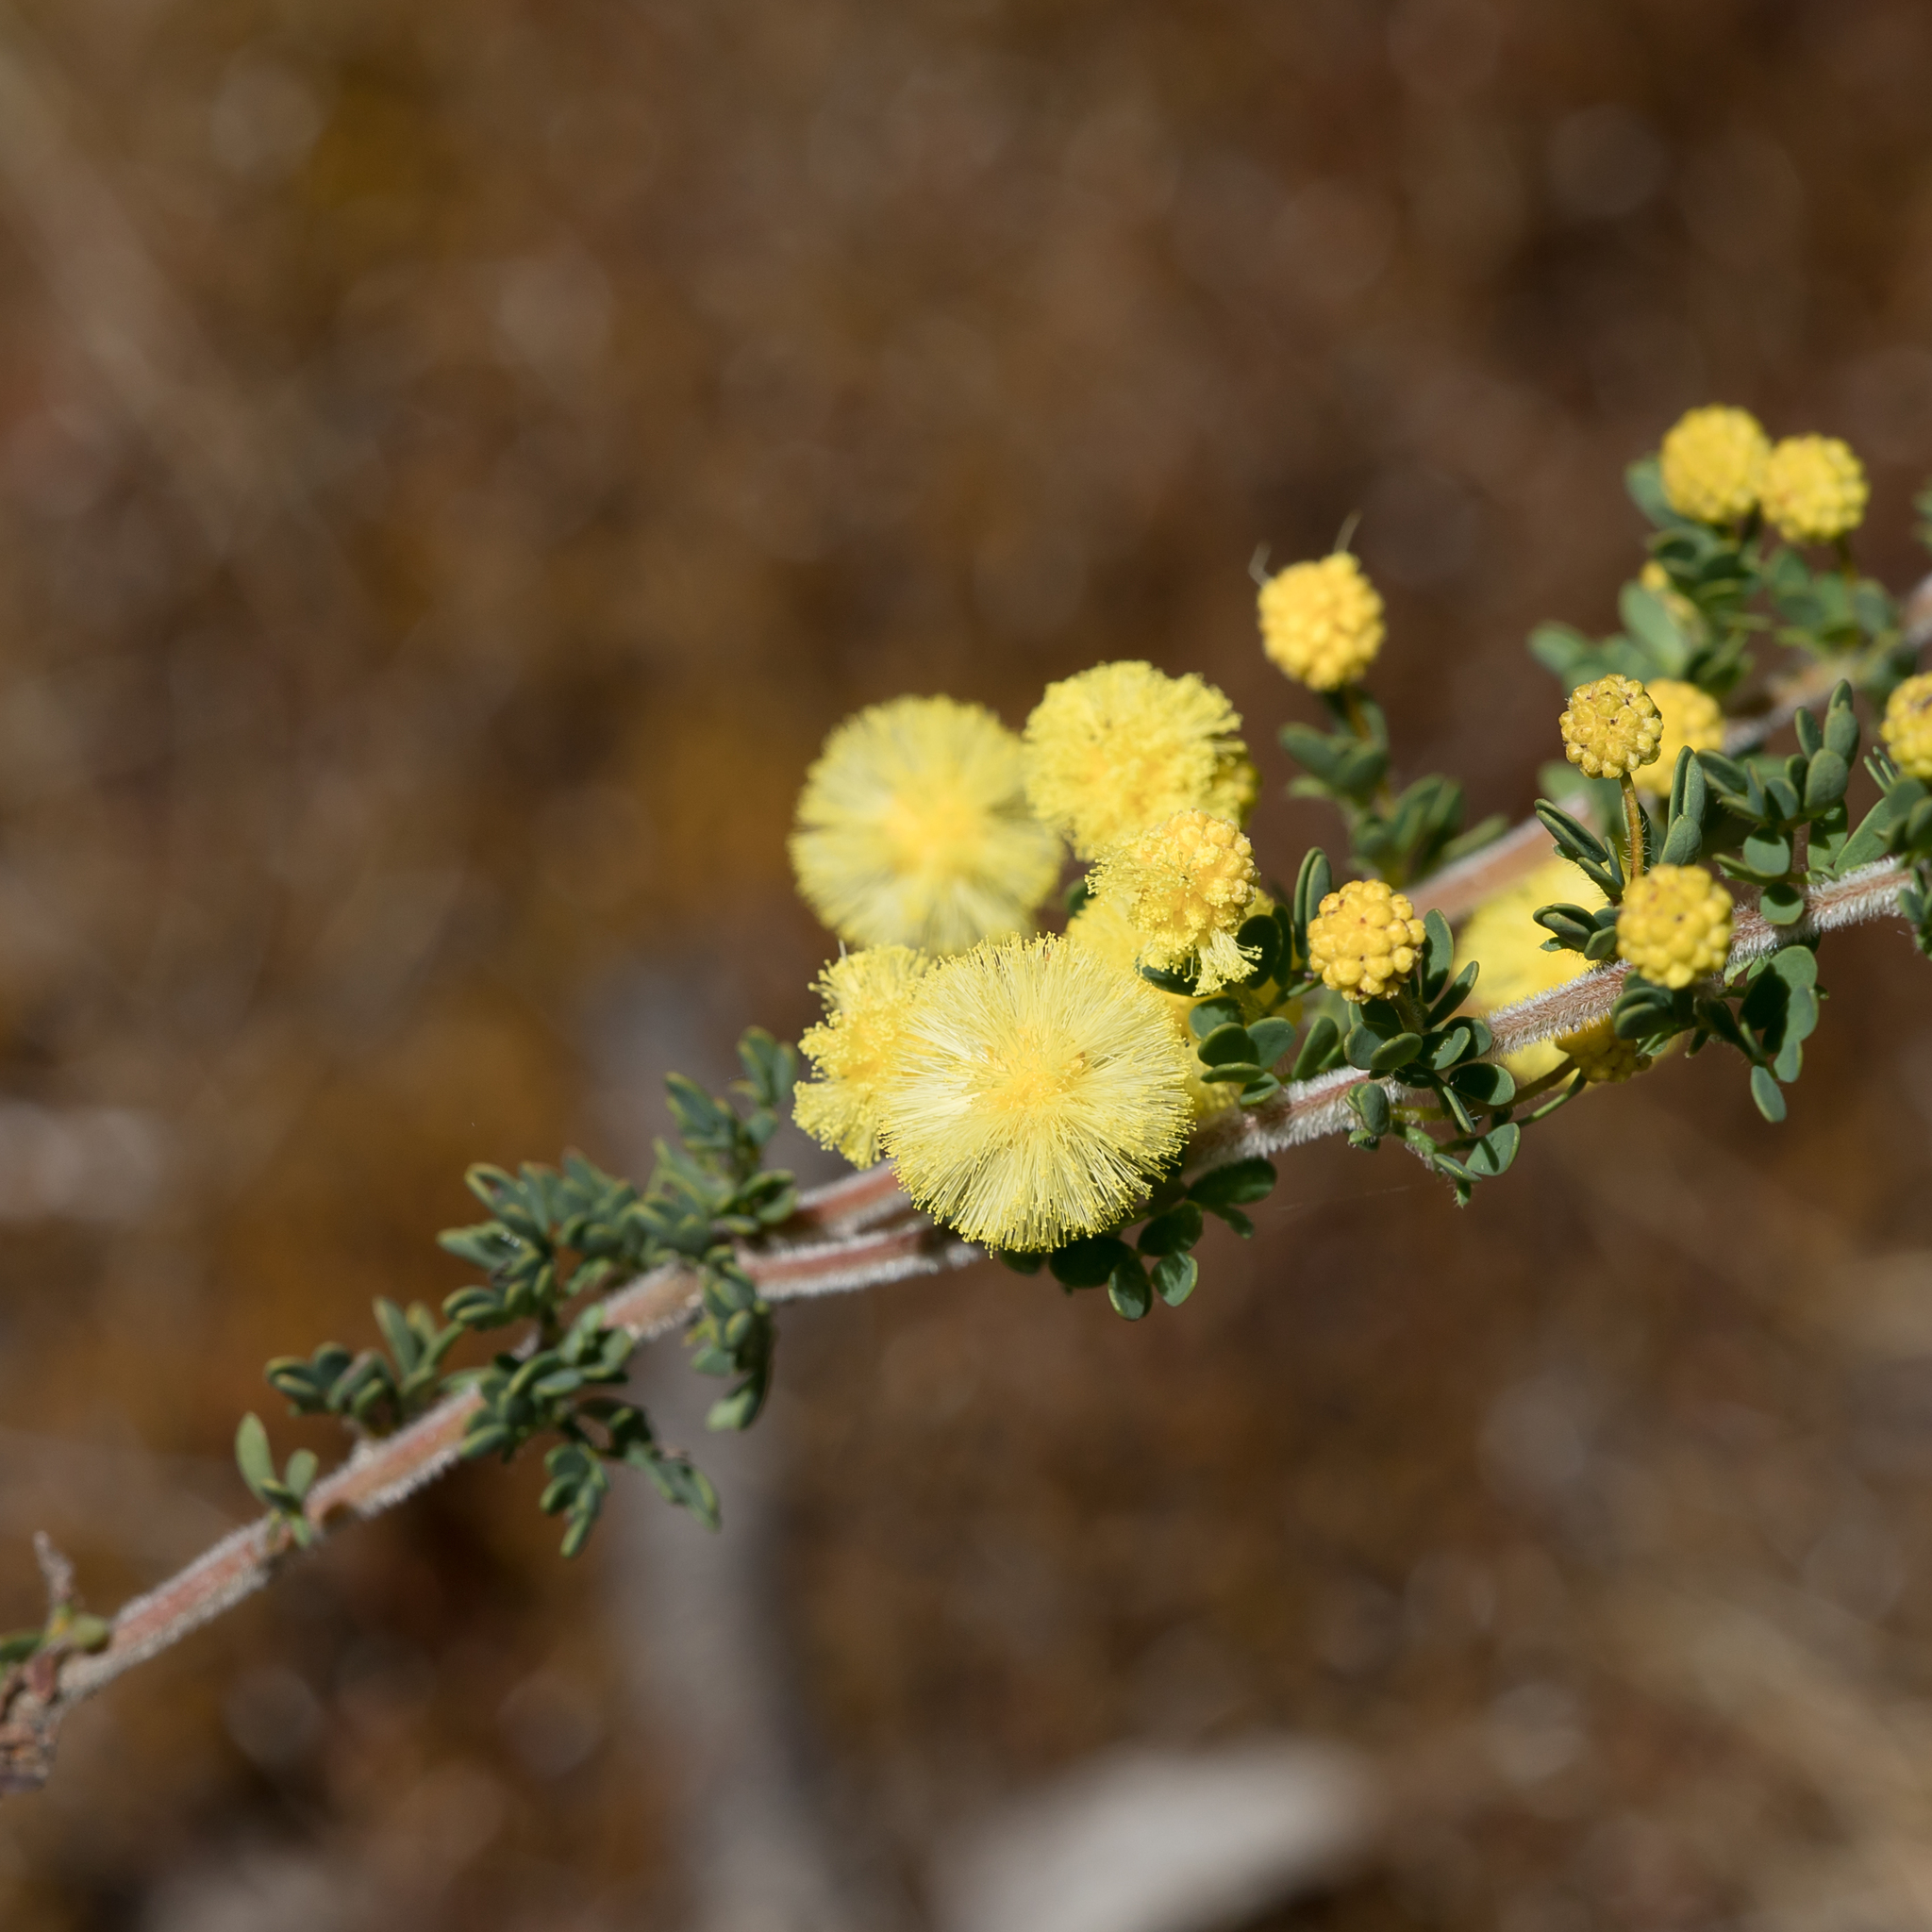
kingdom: Plantae
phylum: Tracheophyta
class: Magnoliopsida
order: Fabales
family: Fabaceae
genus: Acacia
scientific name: Acacia mitchellii
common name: Mitchell's wattle
